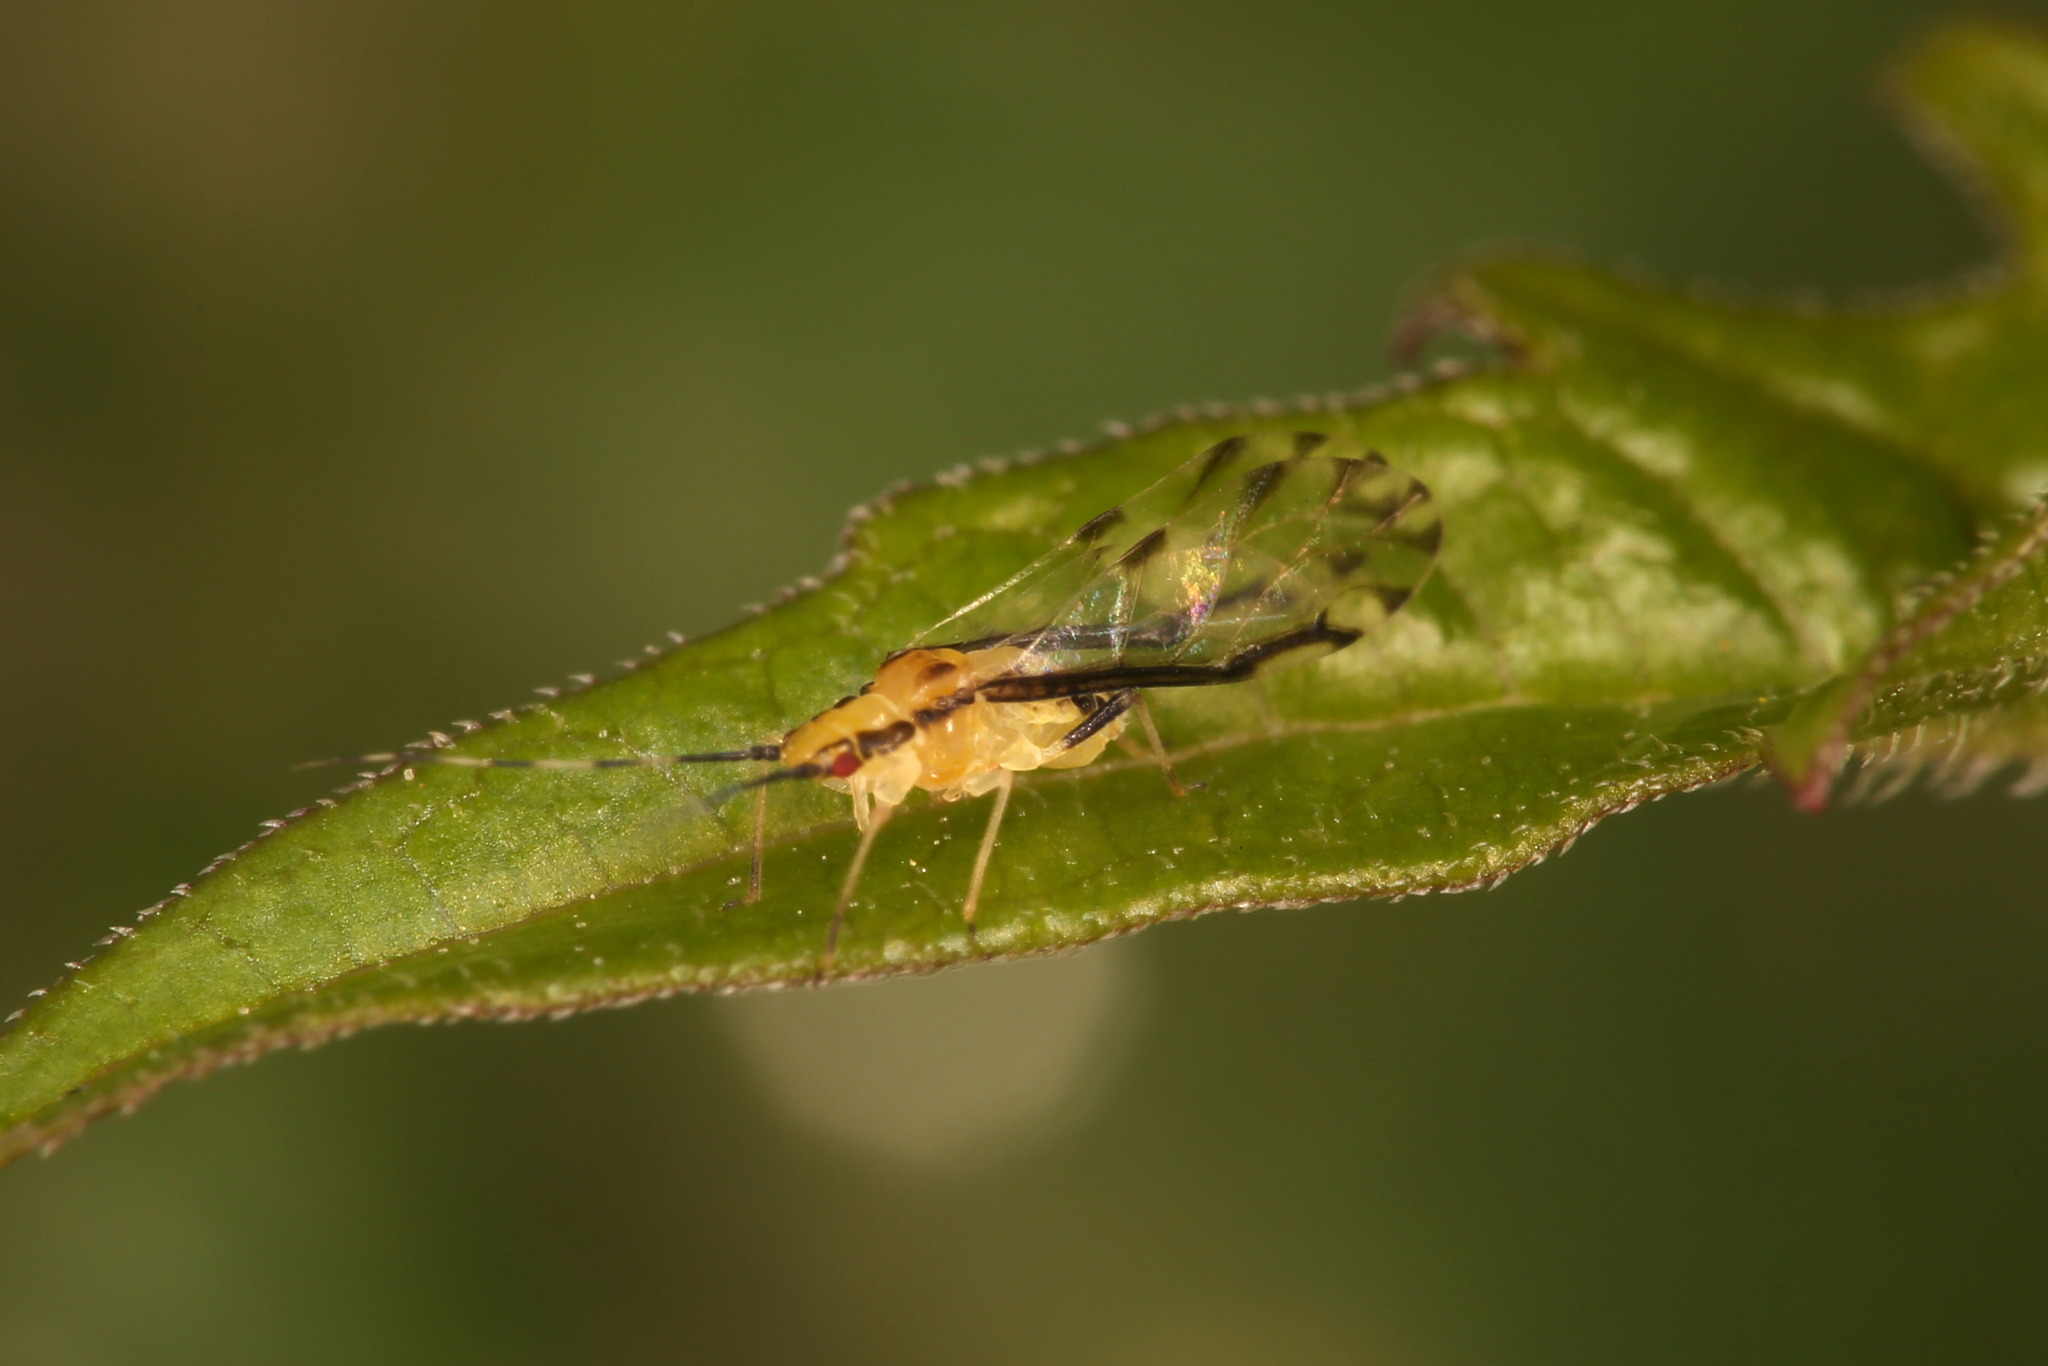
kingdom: Animalia
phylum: Arthropoda
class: Insecta
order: Hemiptera
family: Aphididae
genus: Eucallipterus
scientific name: Eucallipterus tiliae
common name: Aphid
